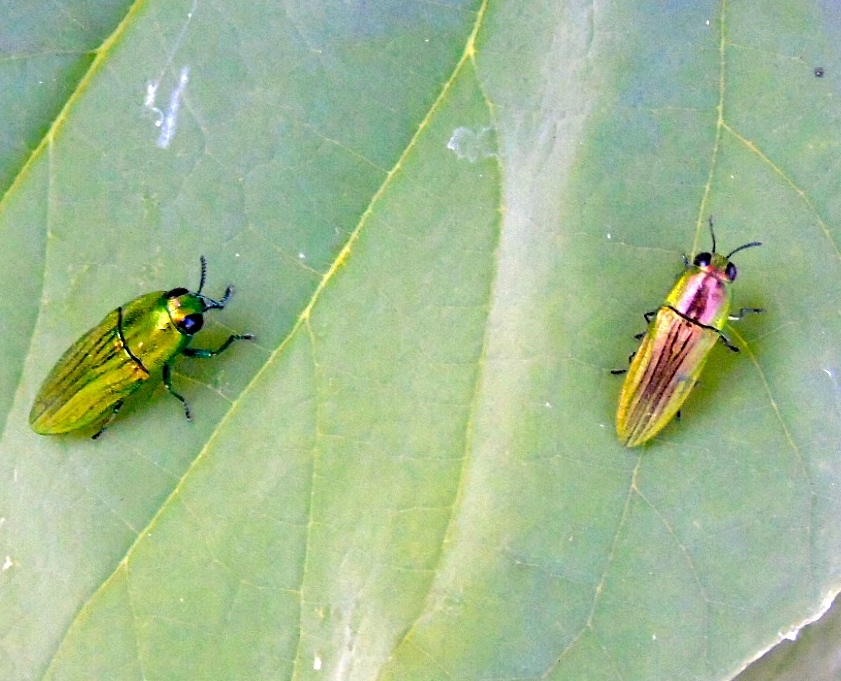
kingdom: Animalia
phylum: Arthropoda
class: Insecta
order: Coleoptera
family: Buprestidae
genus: Agaeocera
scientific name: Agaeocera scintillans
